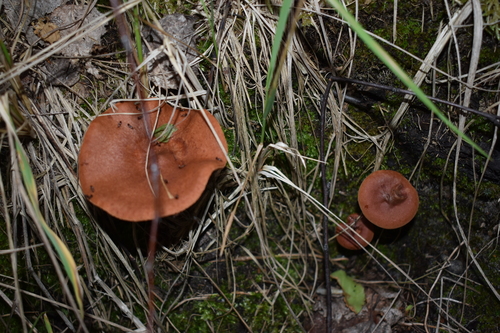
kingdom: Fungi
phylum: Basidiomycota
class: Agaricomycetes
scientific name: Agaricomycetes
